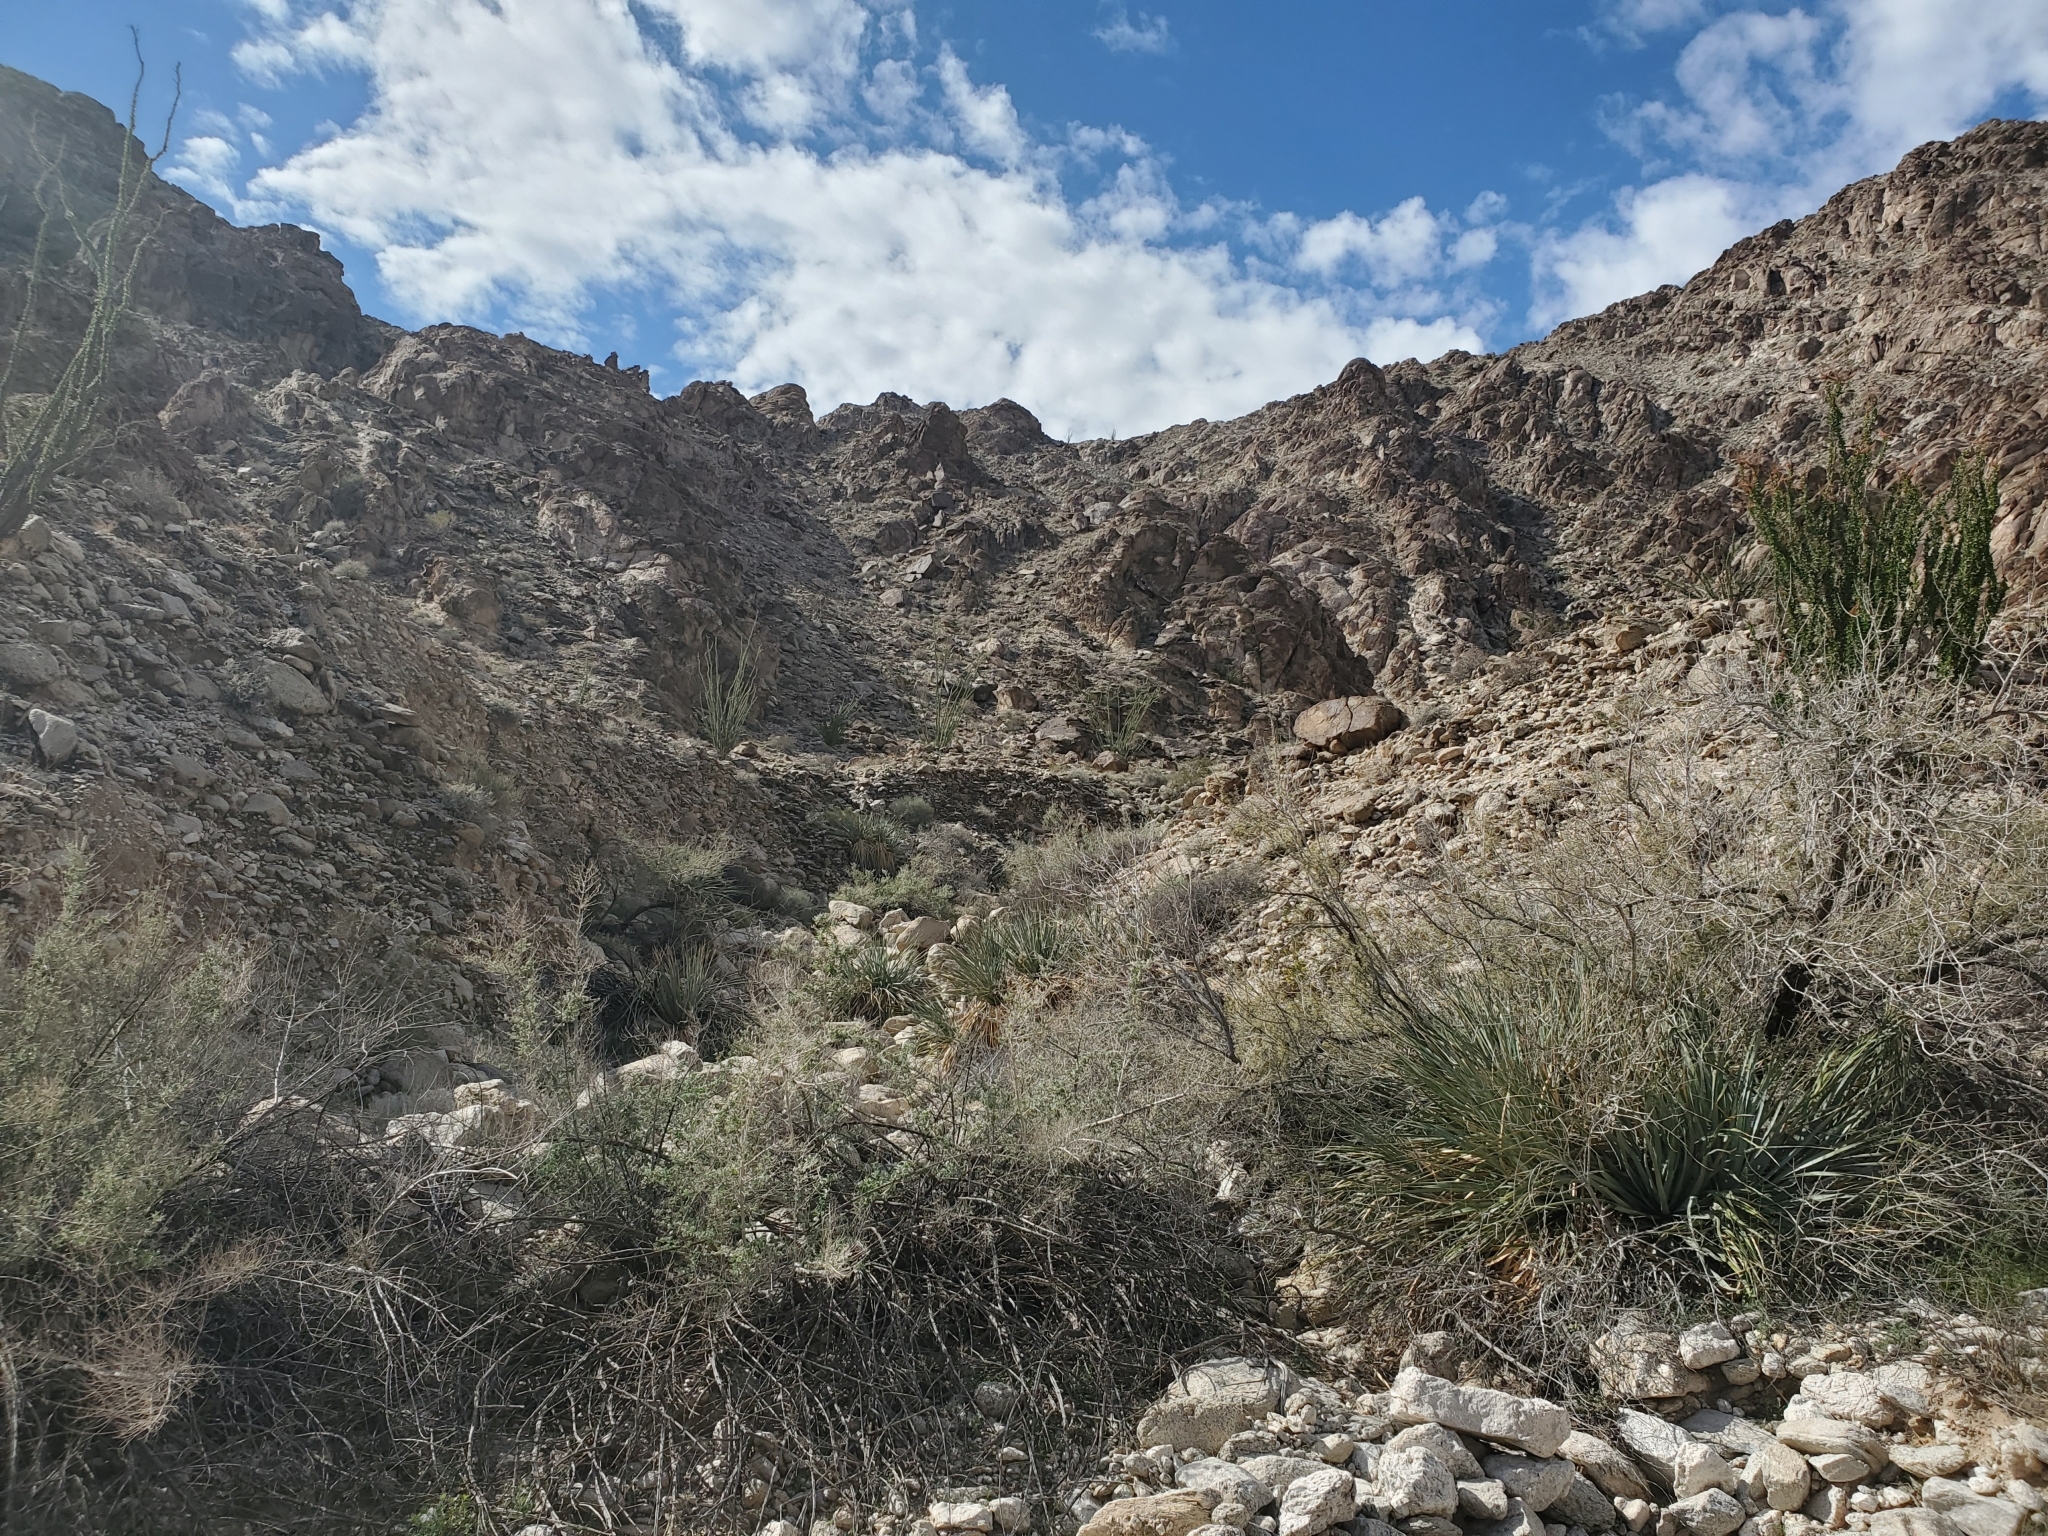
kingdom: Plantae
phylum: Tracheophyta
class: Liliopsida
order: Asparagales
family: Asparagaceae
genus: Nolina
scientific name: Nolina bigelovii
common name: Bigelow bear-grass
